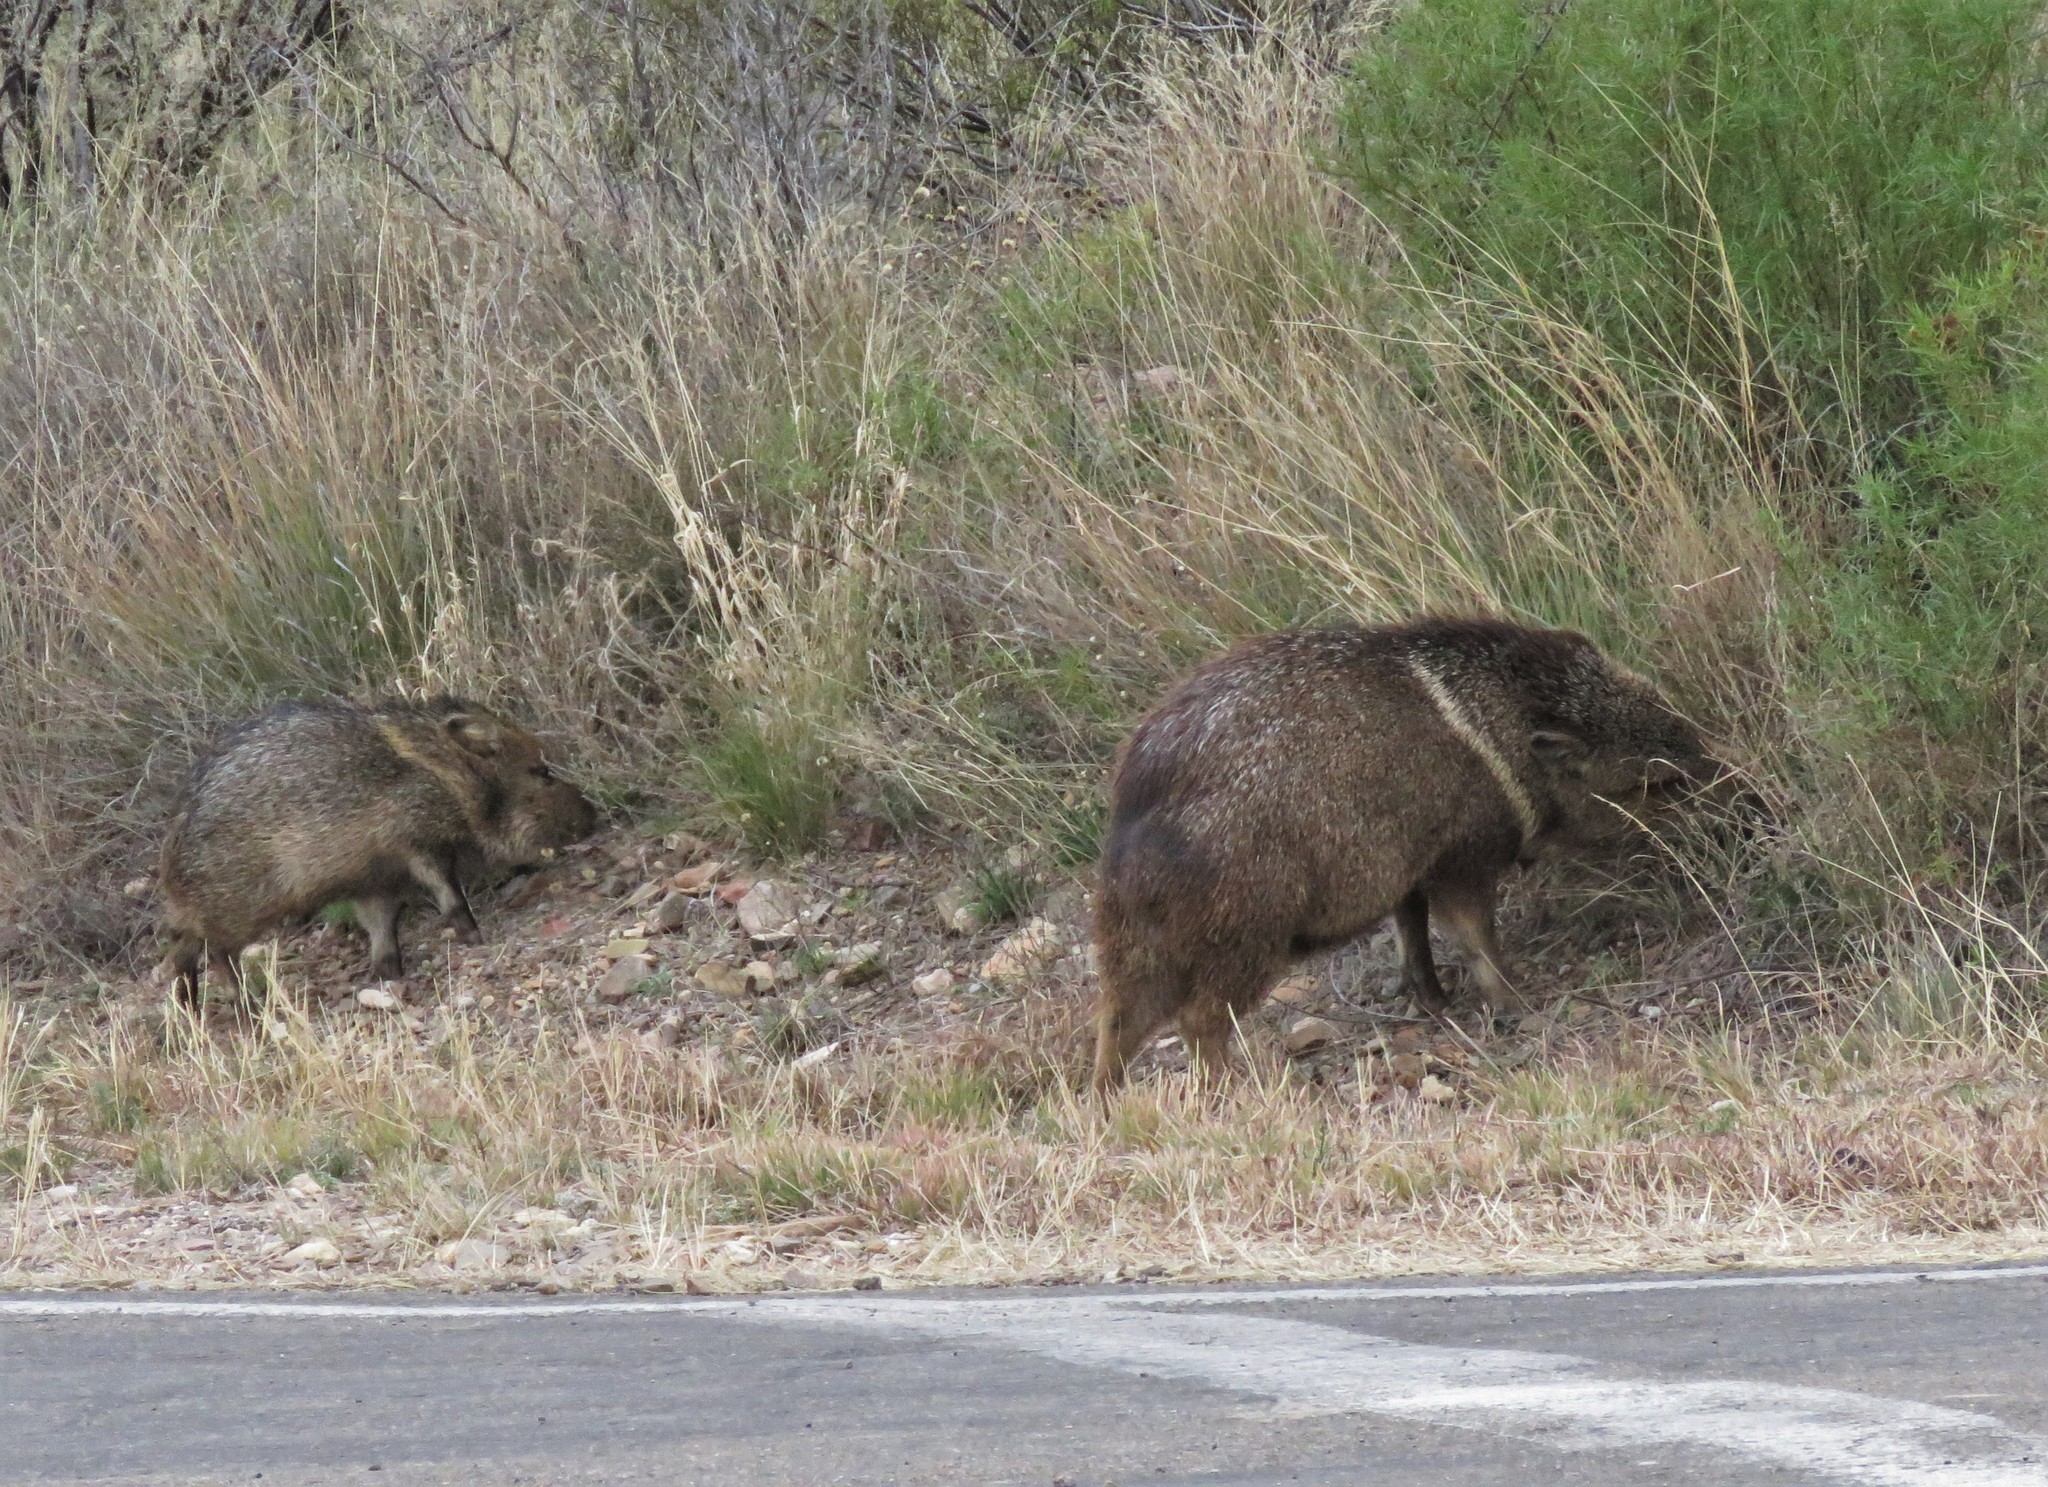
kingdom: Animalia
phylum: Chordata
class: Mammalia
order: Artiodactyla
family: Tayassuidae
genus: Pecari
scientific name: Pecari tajacu
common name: Collared peccary
